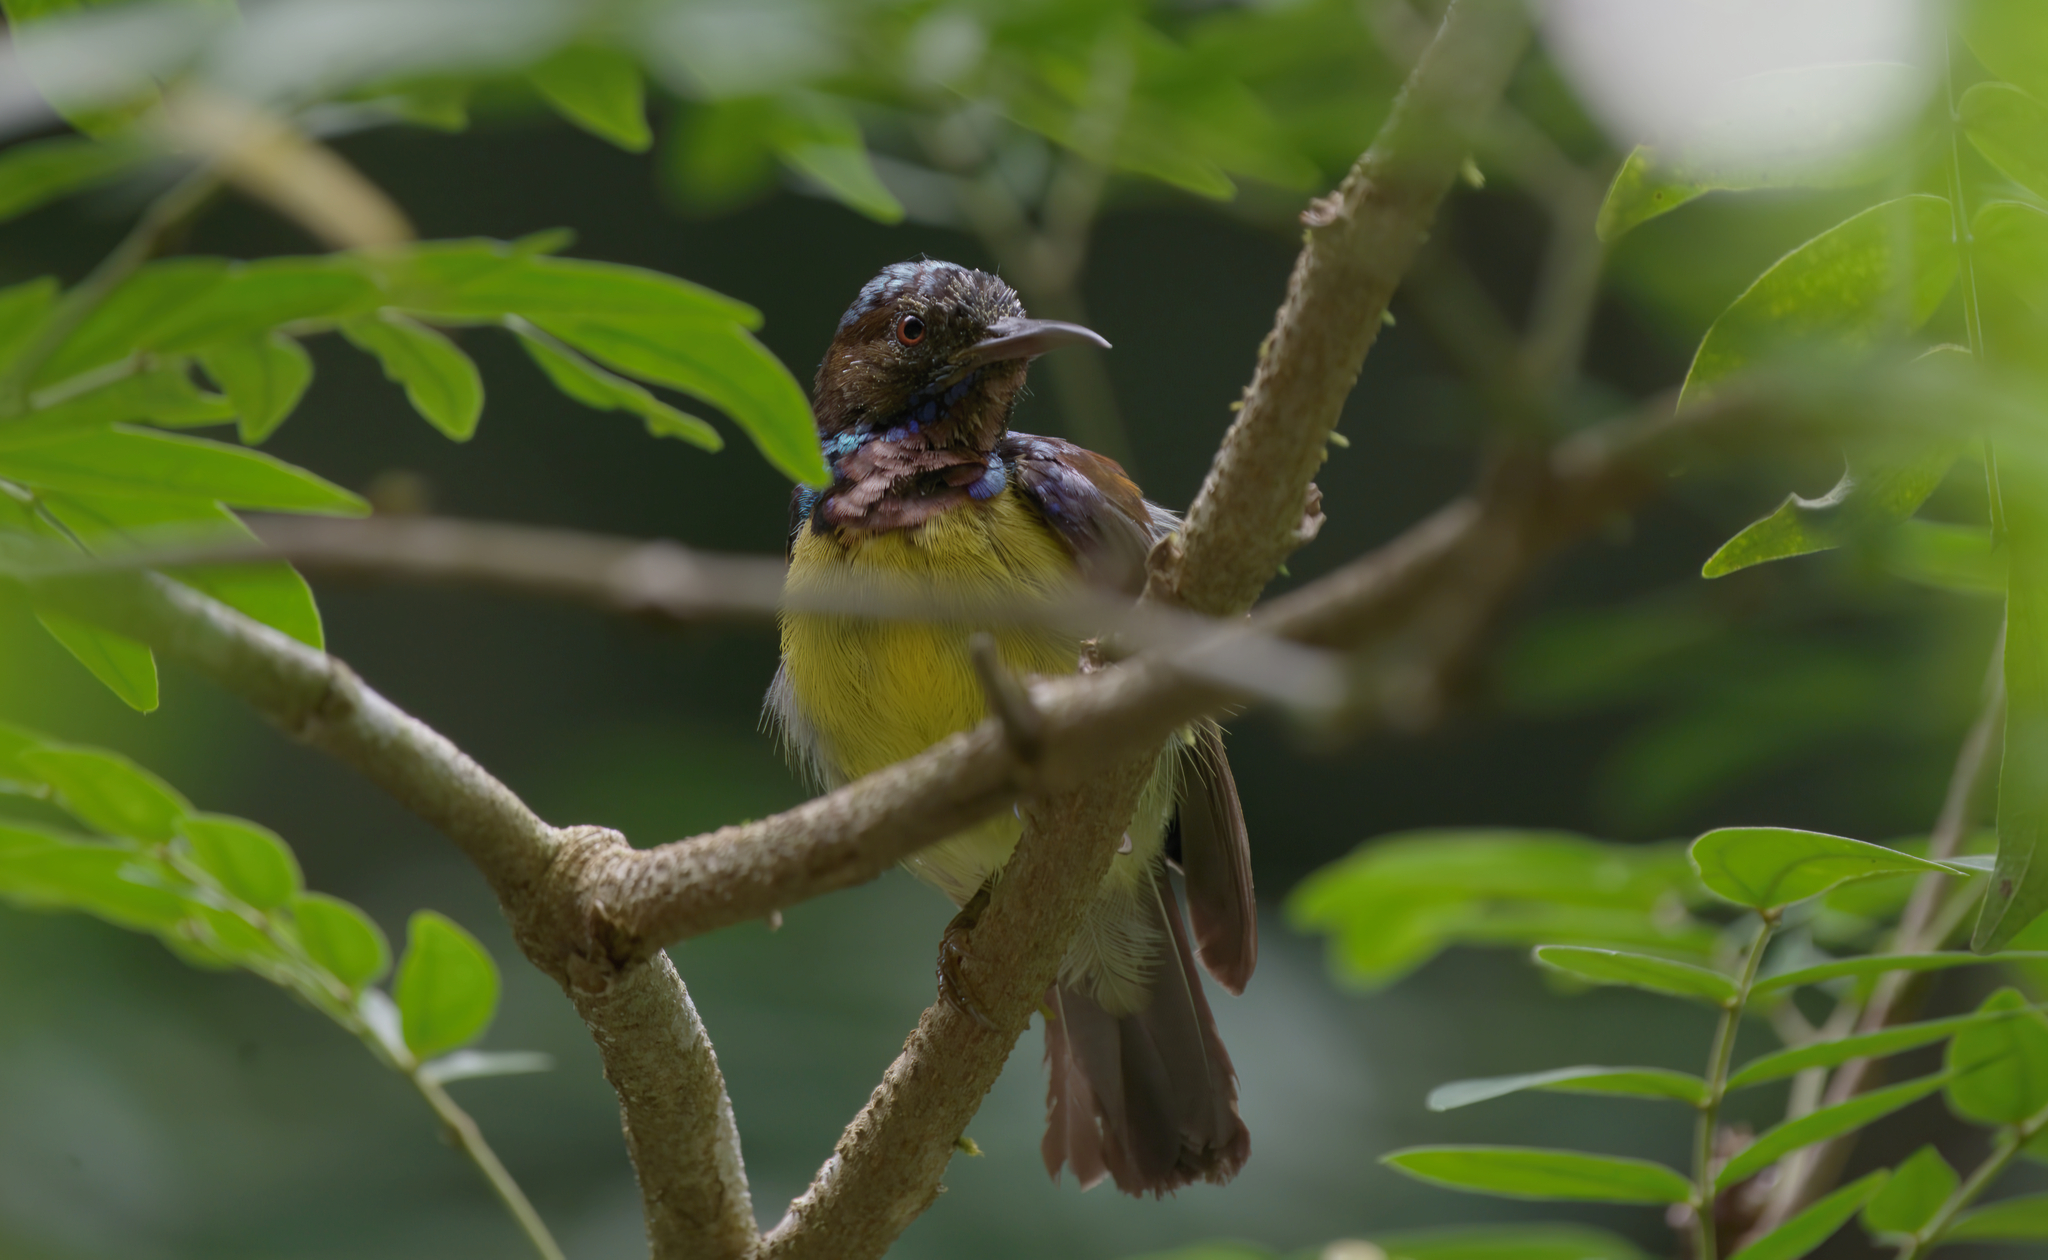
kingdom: Animalia
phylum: Chordata
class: Aves
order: Passeriformes
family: Nectariniidae
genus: Anthreptes
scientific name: Anthreptes malacensis
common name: Brown-throated sunbird
